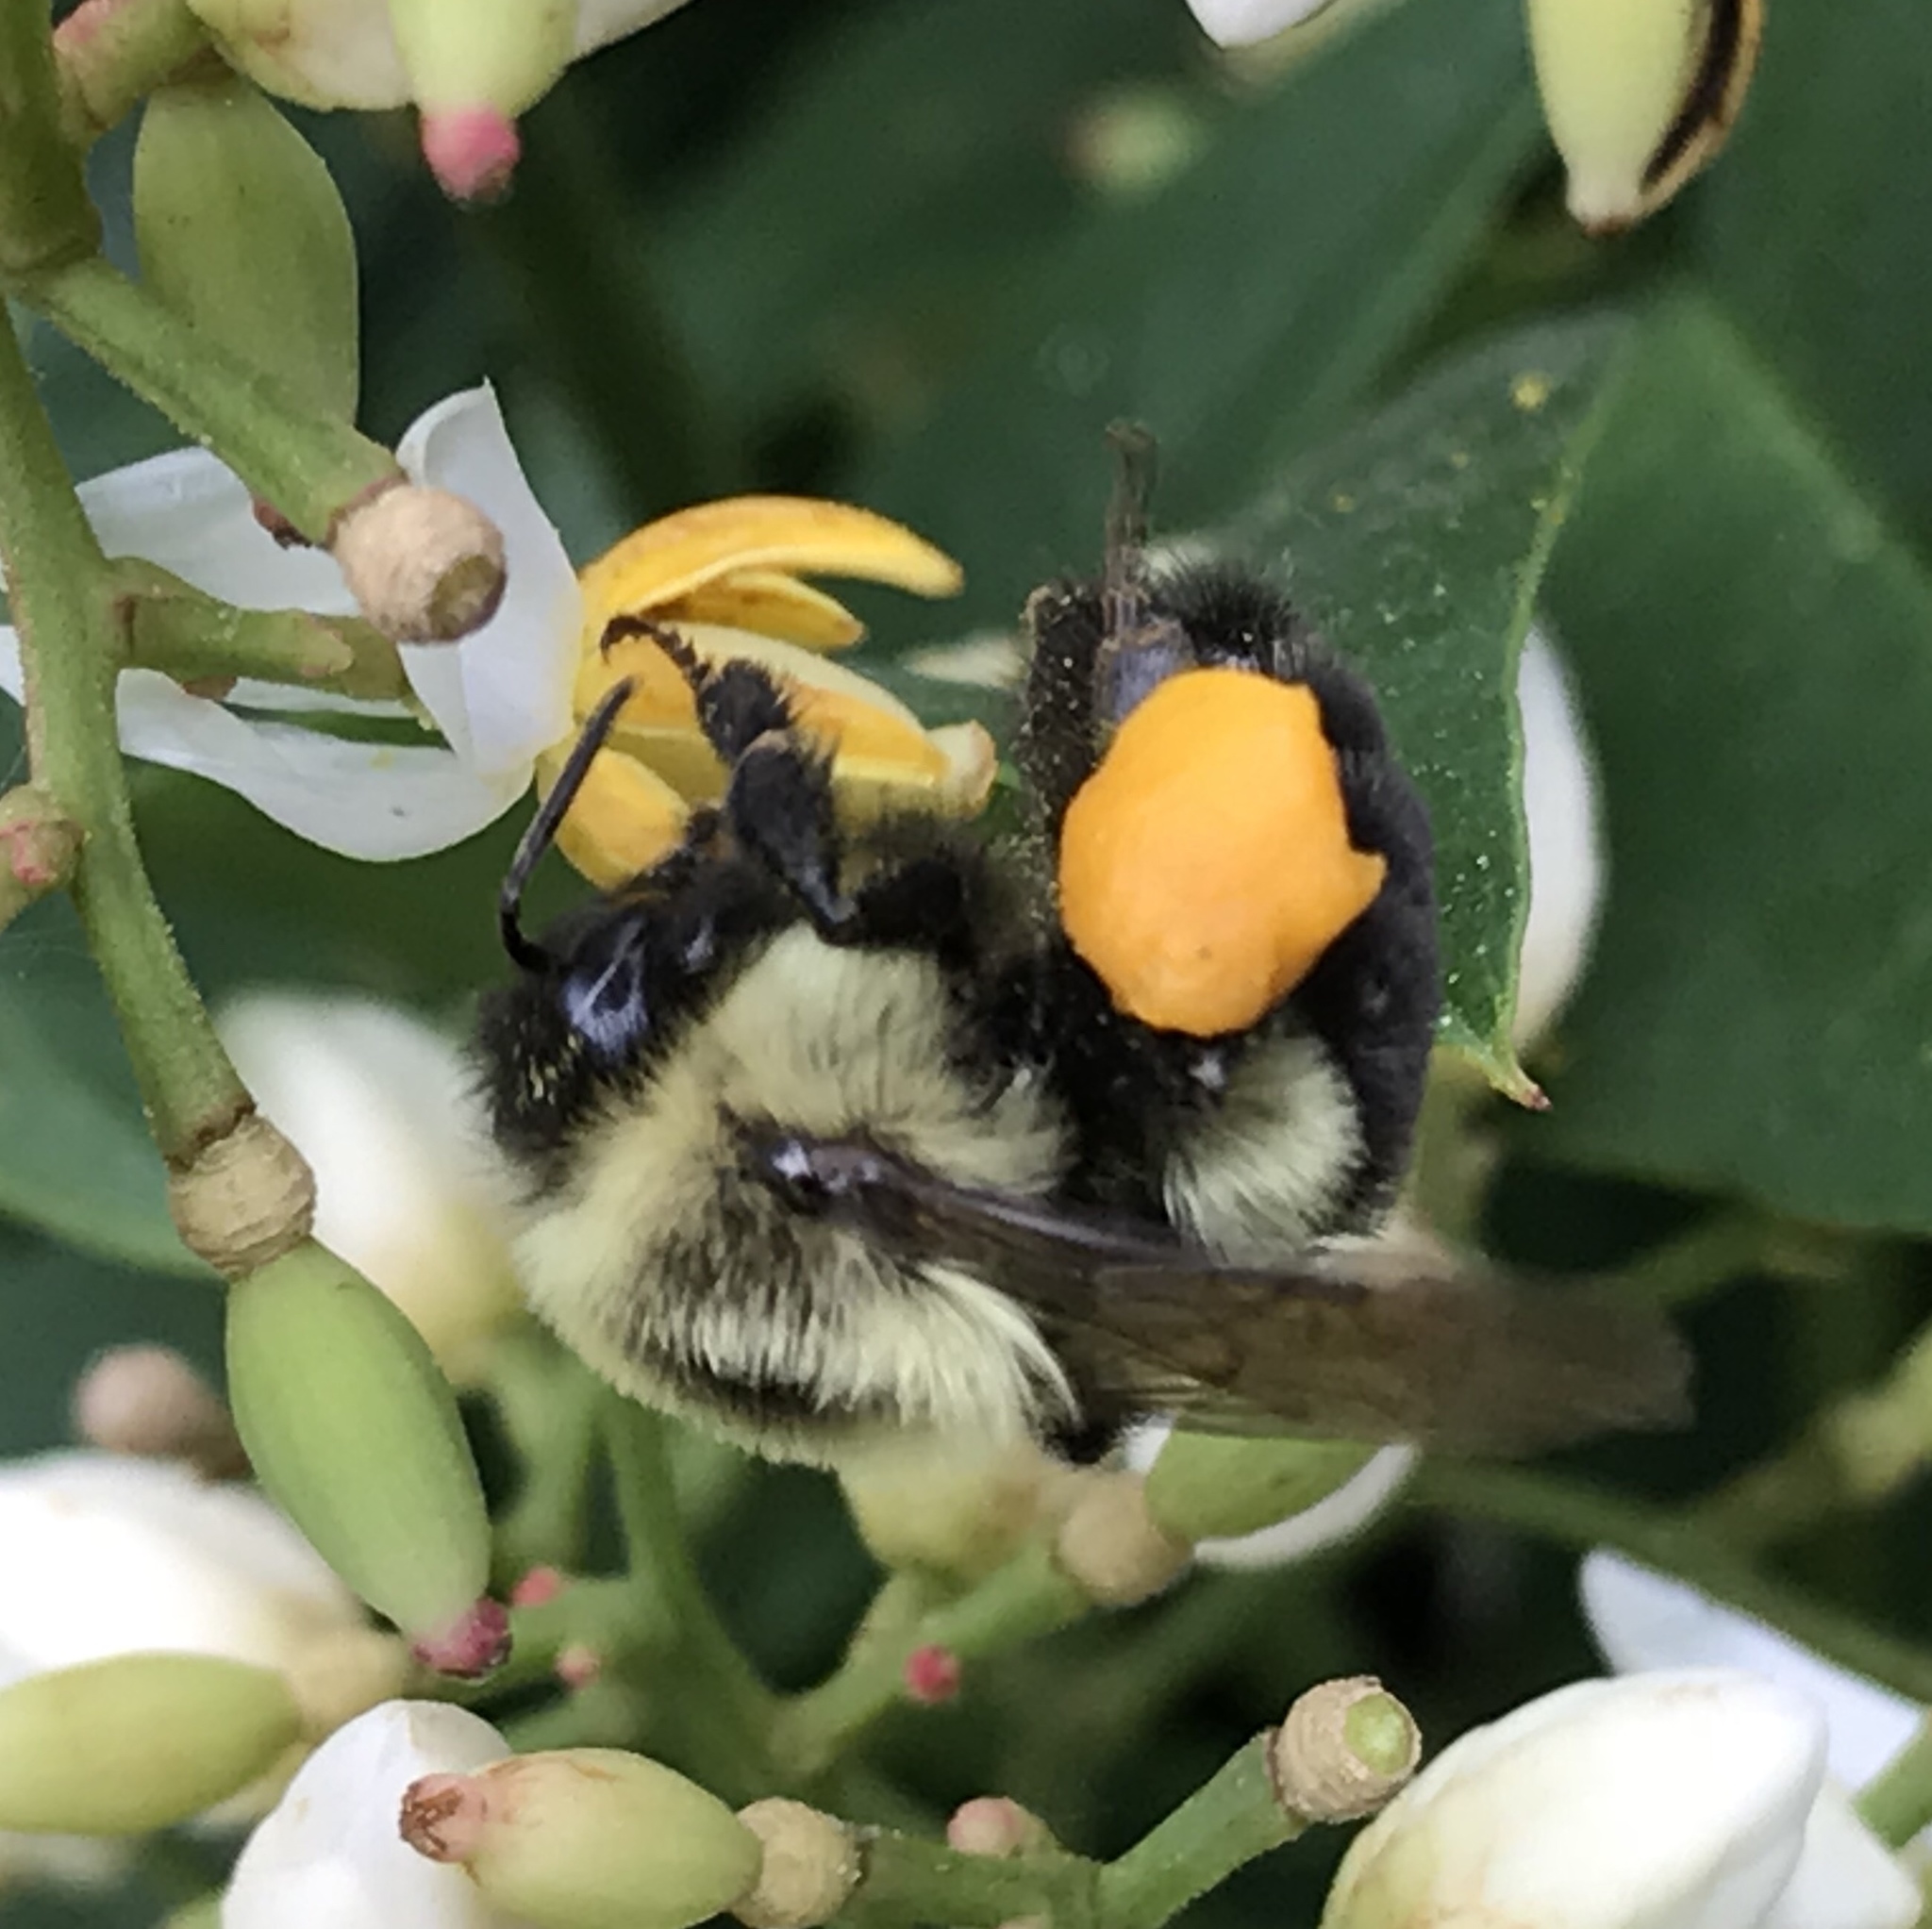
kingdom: Animalia
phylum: Arthropoda
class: Insecta
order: Hymenoptera
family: Apidae
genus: Bombus
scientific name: Bombus impatiens
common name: Common eastern bumble bee
